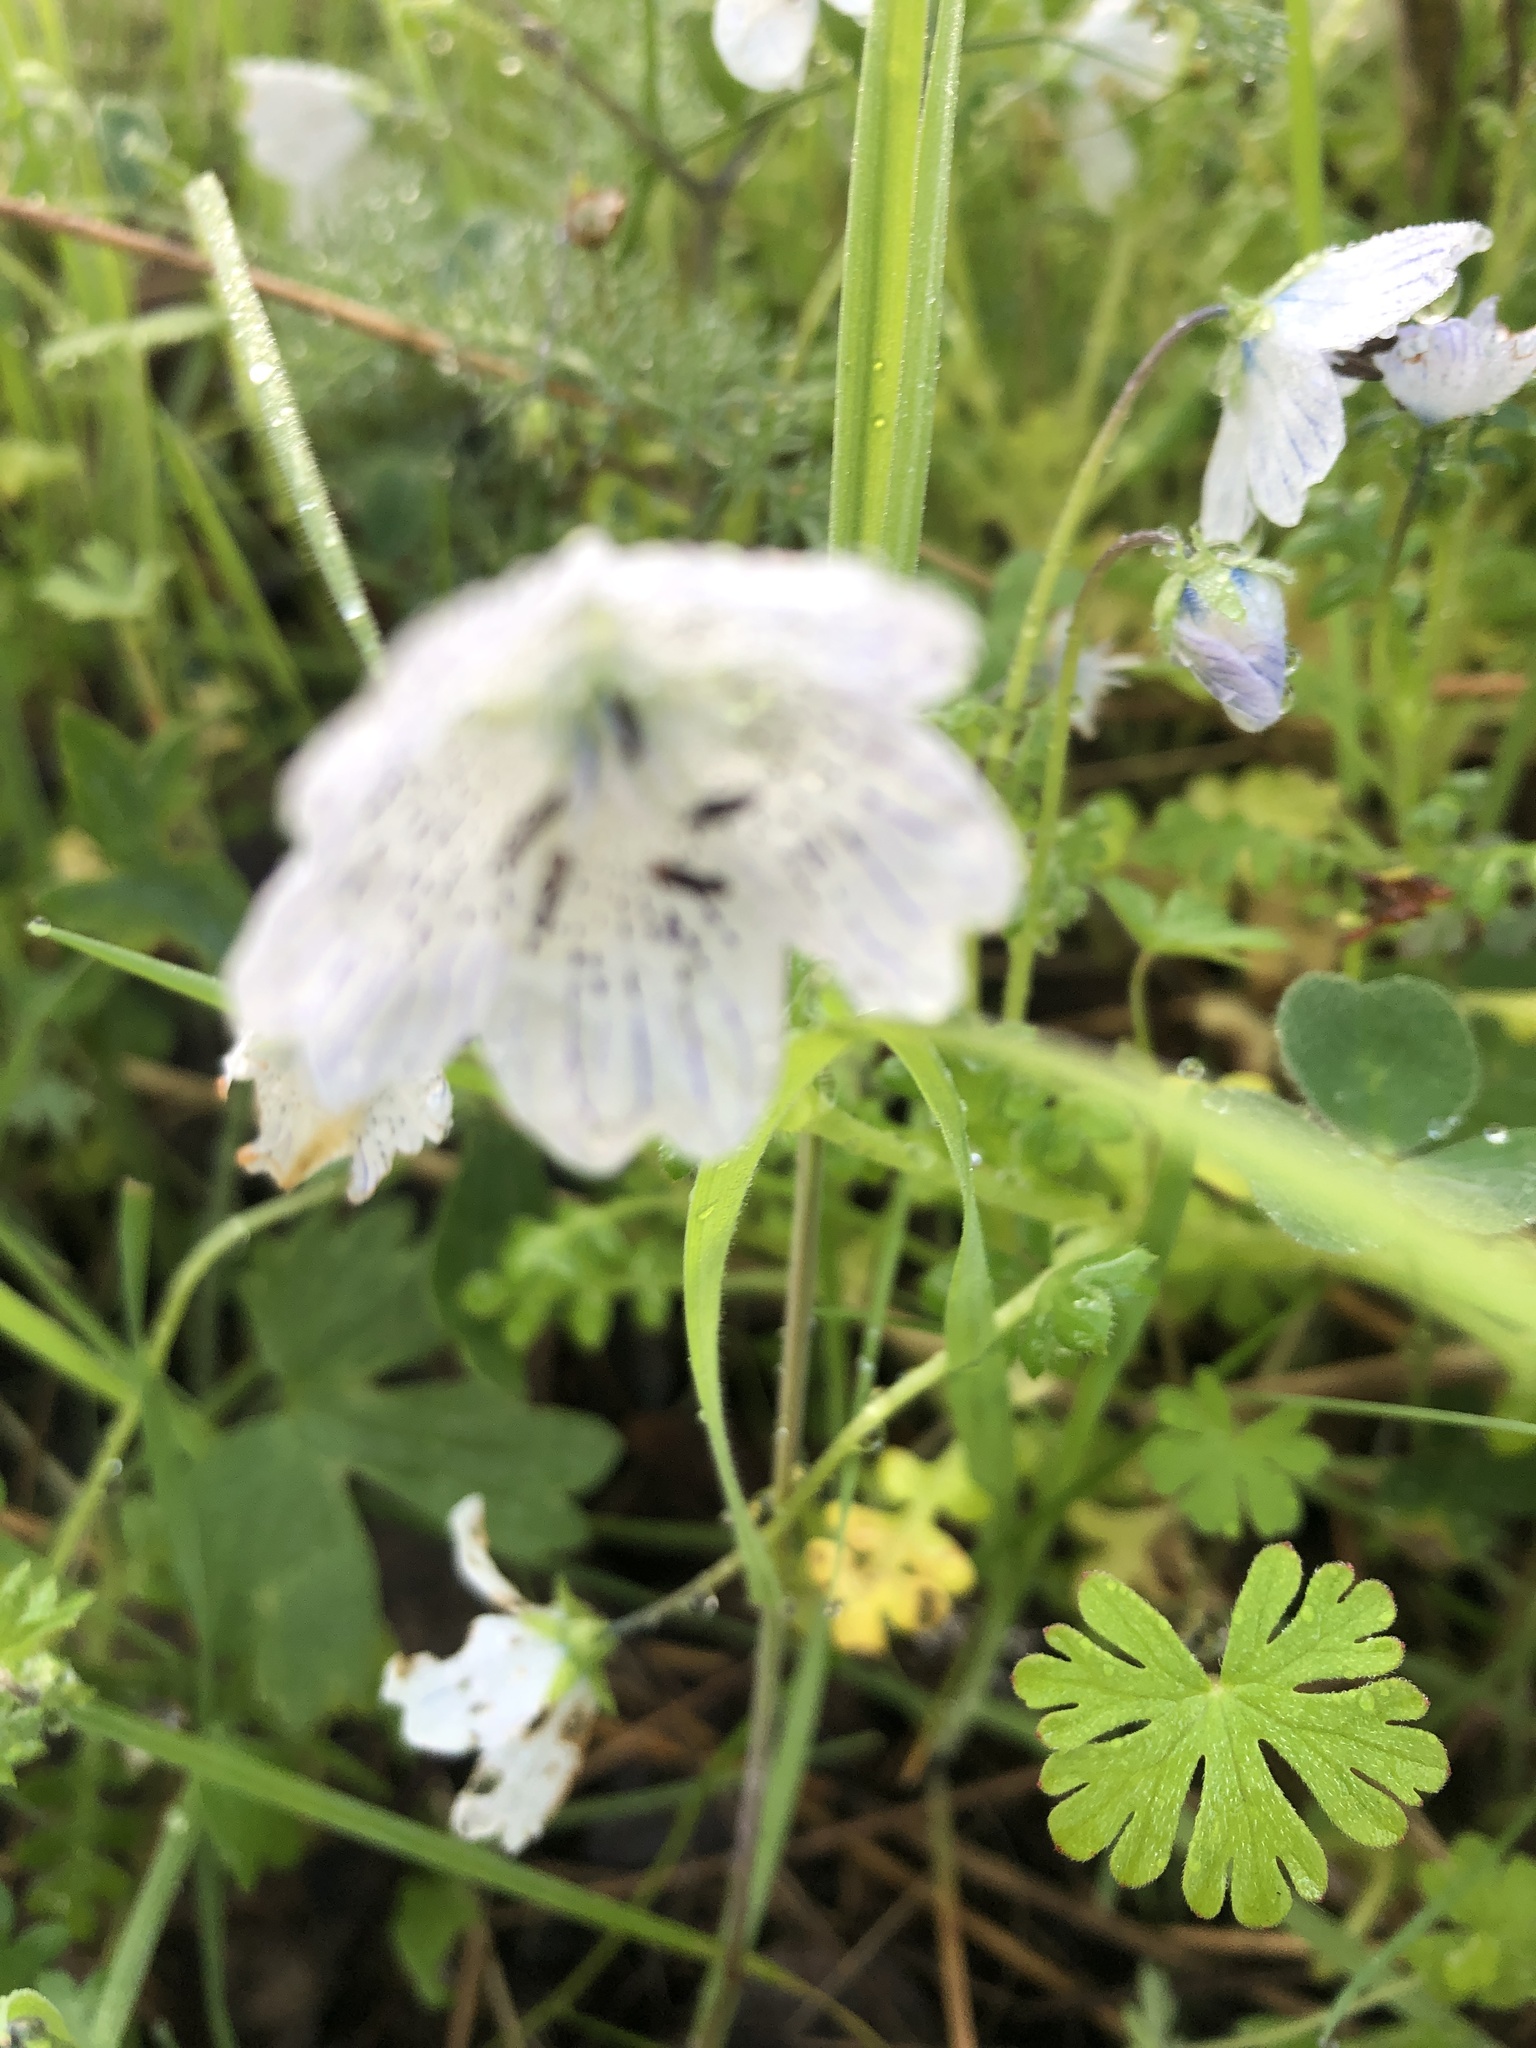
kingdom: Plantae
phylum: Tracheophyta
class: Magnoliopsida
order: Boraginales
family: Hydrophyllaceae
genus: Nemophila
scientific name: Nemophila menziesii
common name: Baby's-blue-eyes
